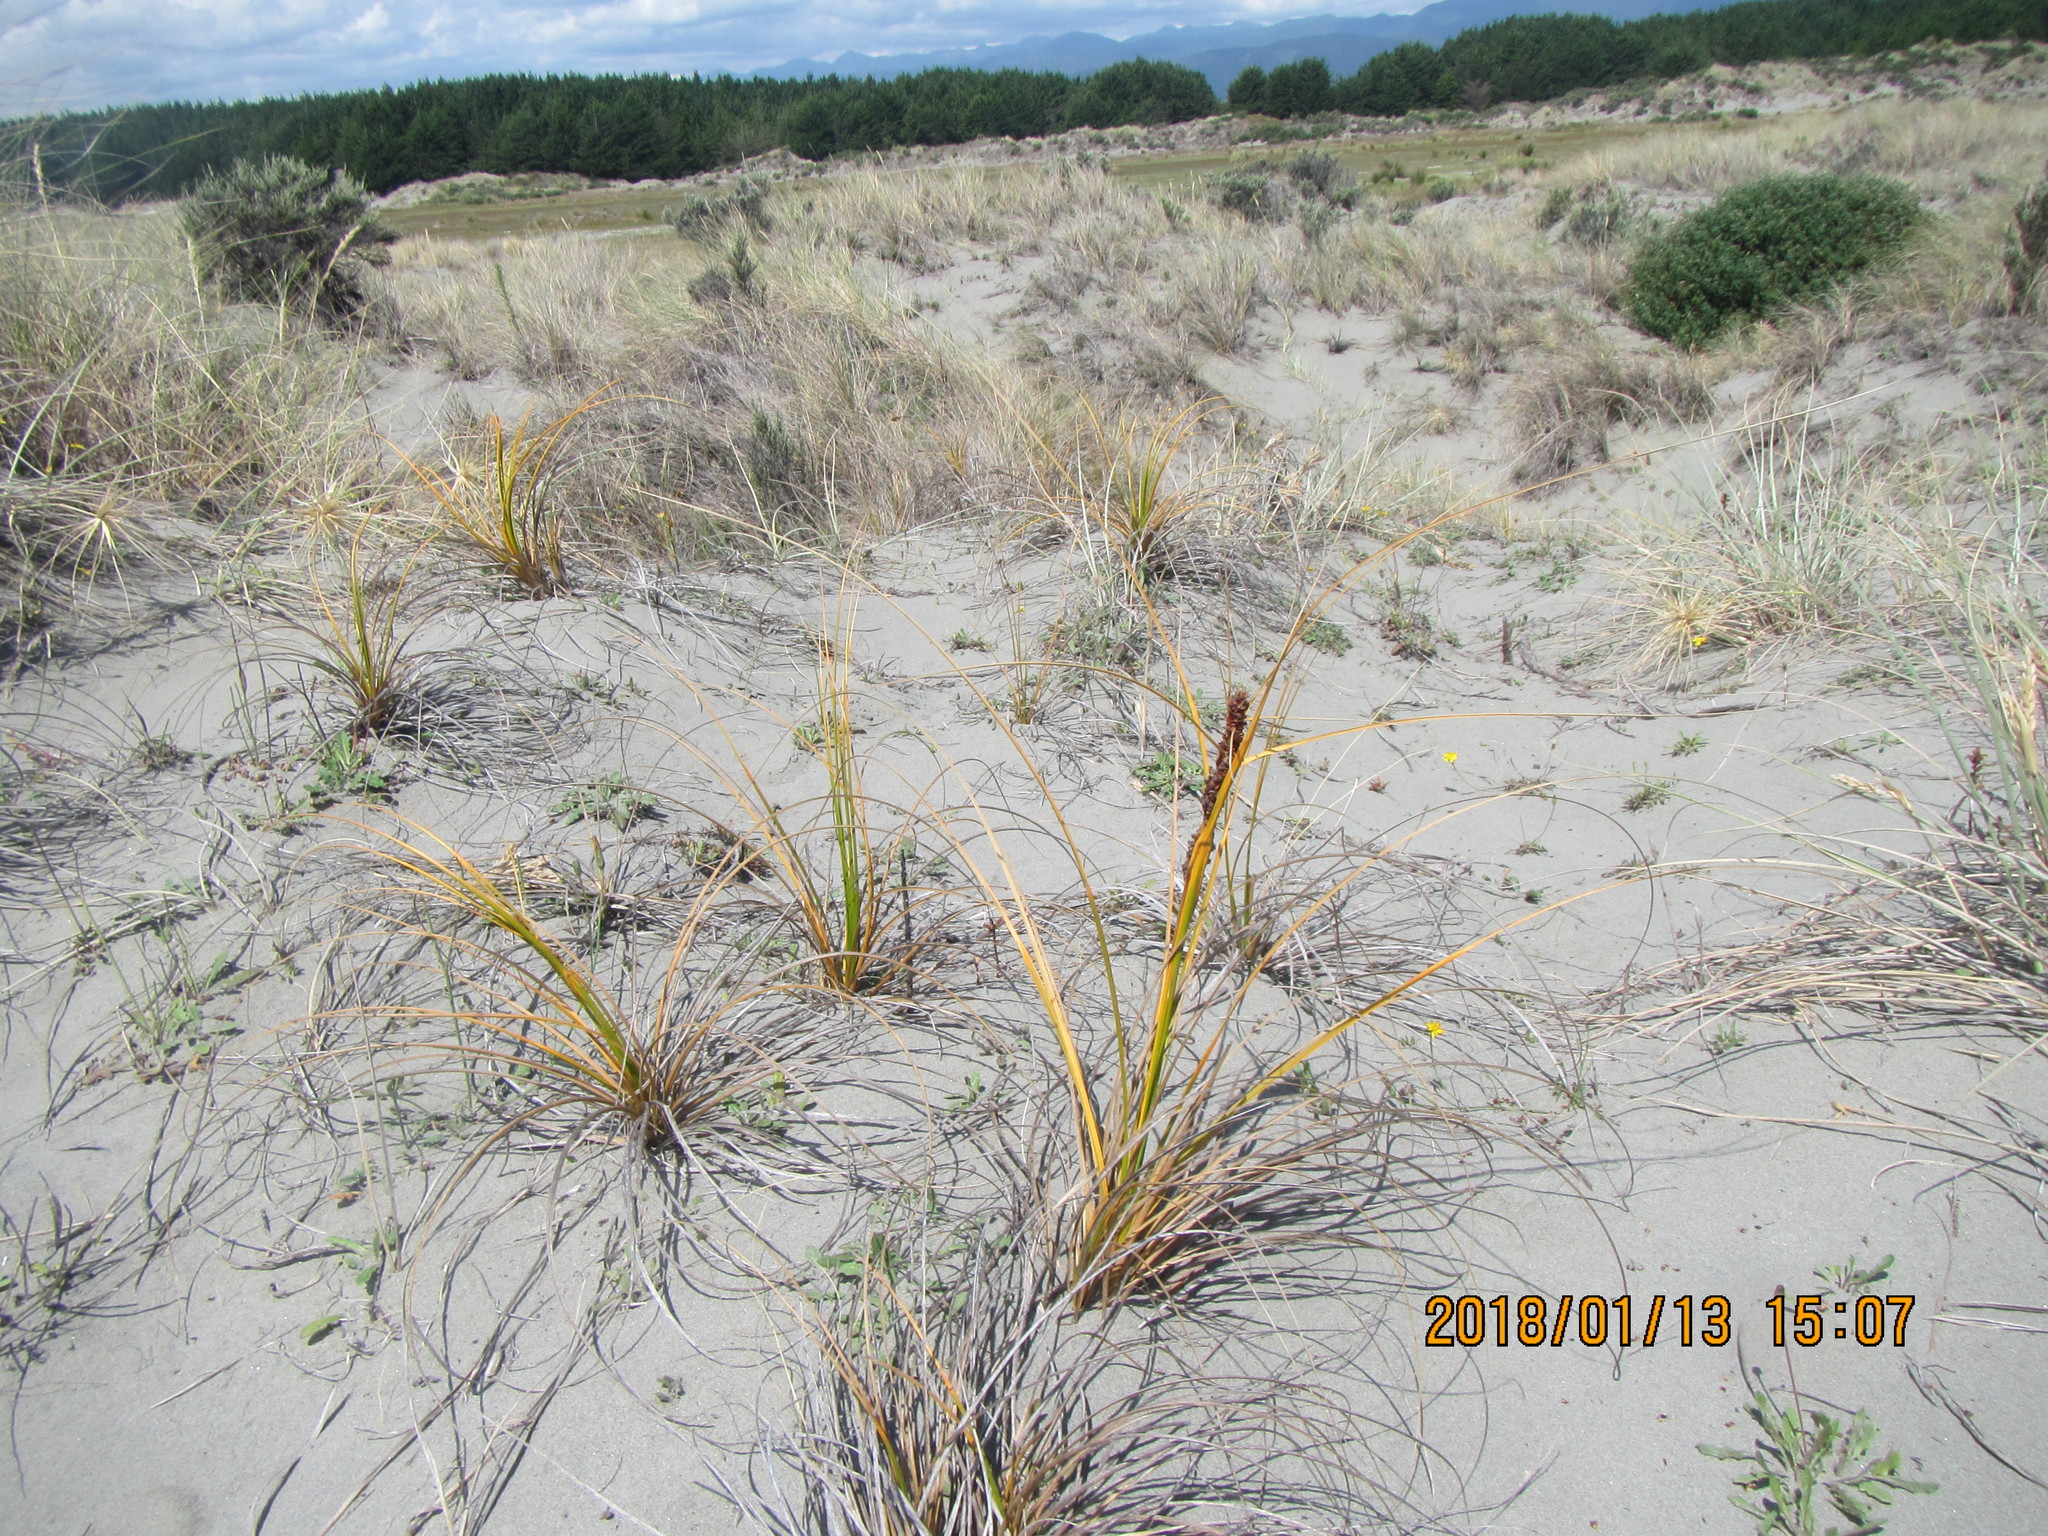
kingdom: Plantae
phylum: Tracheophyta
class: Liliopsida
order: Poales
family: Cyperaceae
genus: Ficinia
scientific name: Ficinia spiralis
